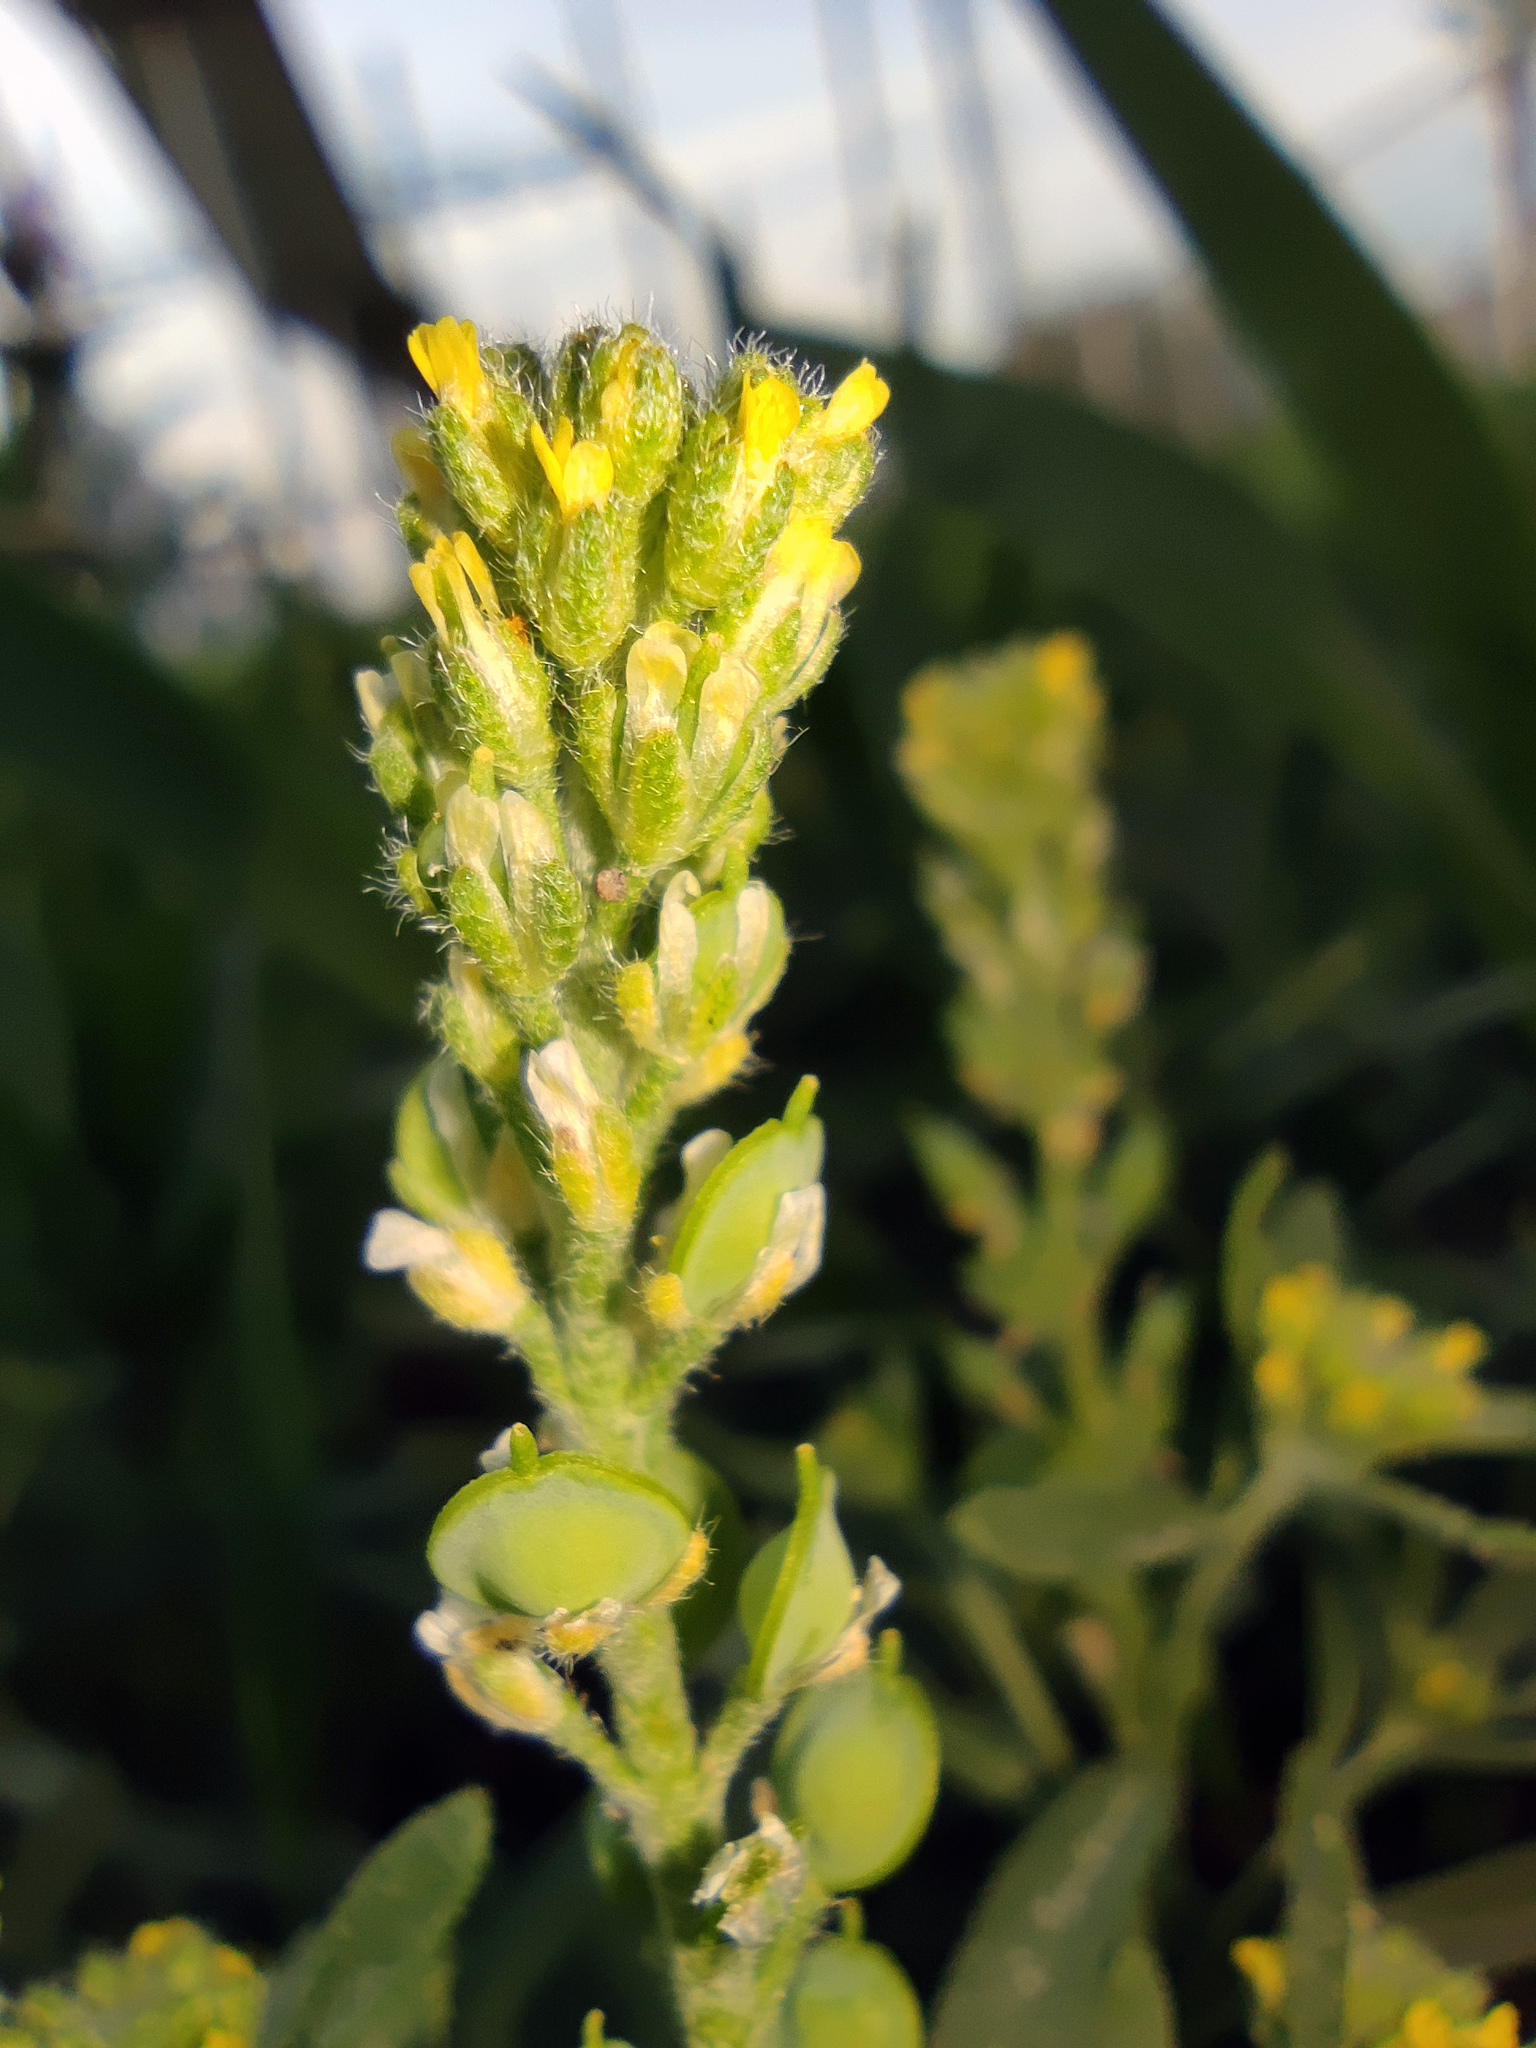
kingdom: Plantae
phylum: Tracheophyta
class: Magnoliopsida
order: Brassicales
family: Brassicaceae
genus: Alyssum
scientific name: Alyssum turkestanicum
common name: Desert alyssum
